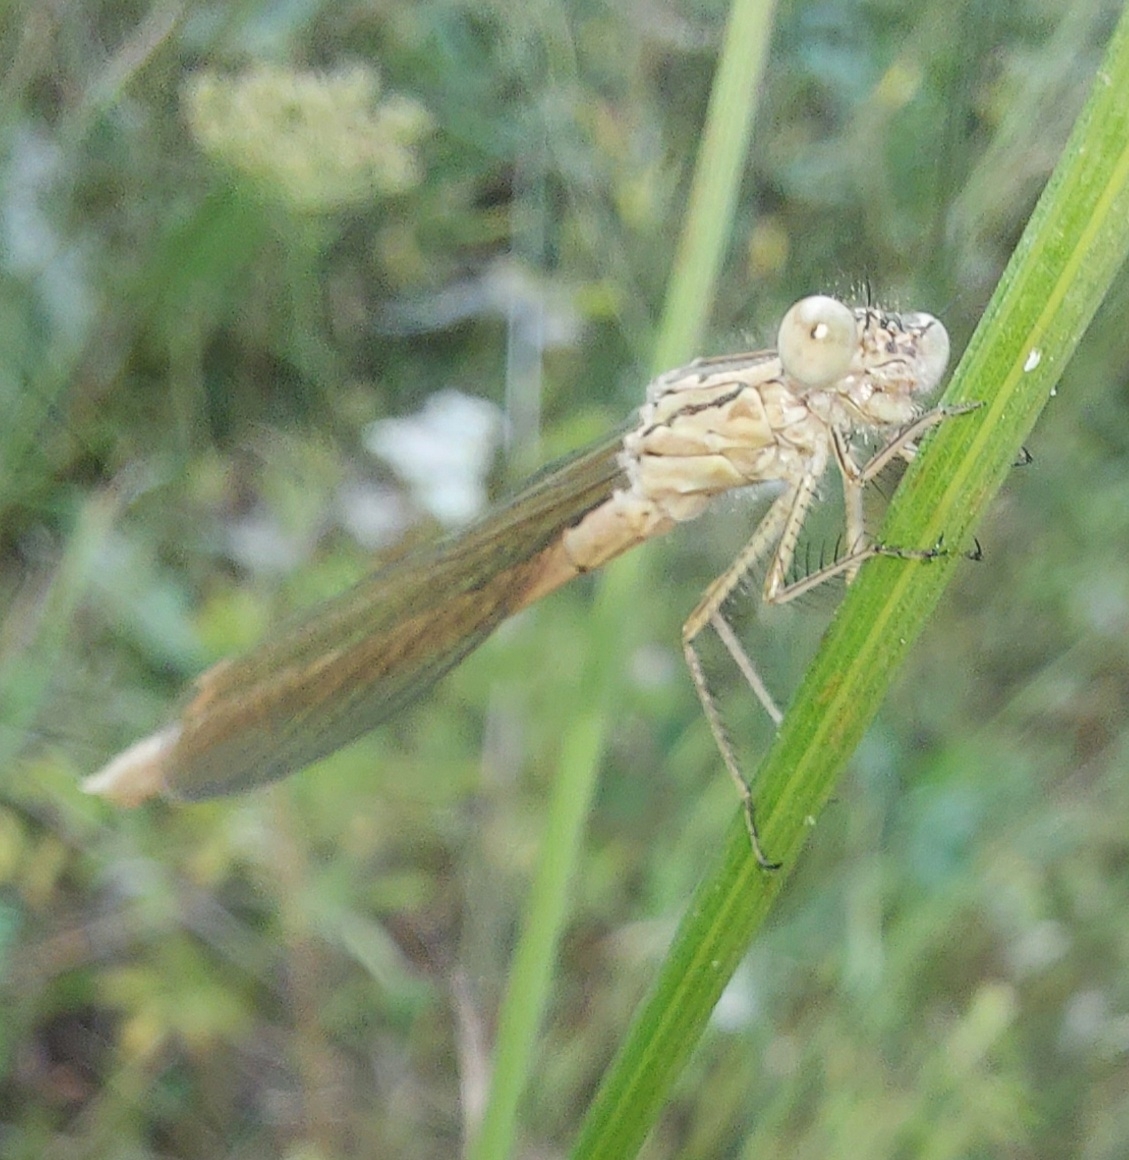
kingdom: Animalia
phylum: Arthropoda
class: Insecta
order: Odonata
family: Lestidae
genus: Sympecma
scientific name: Sympecma paedisca
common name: Siberian winter damsel
